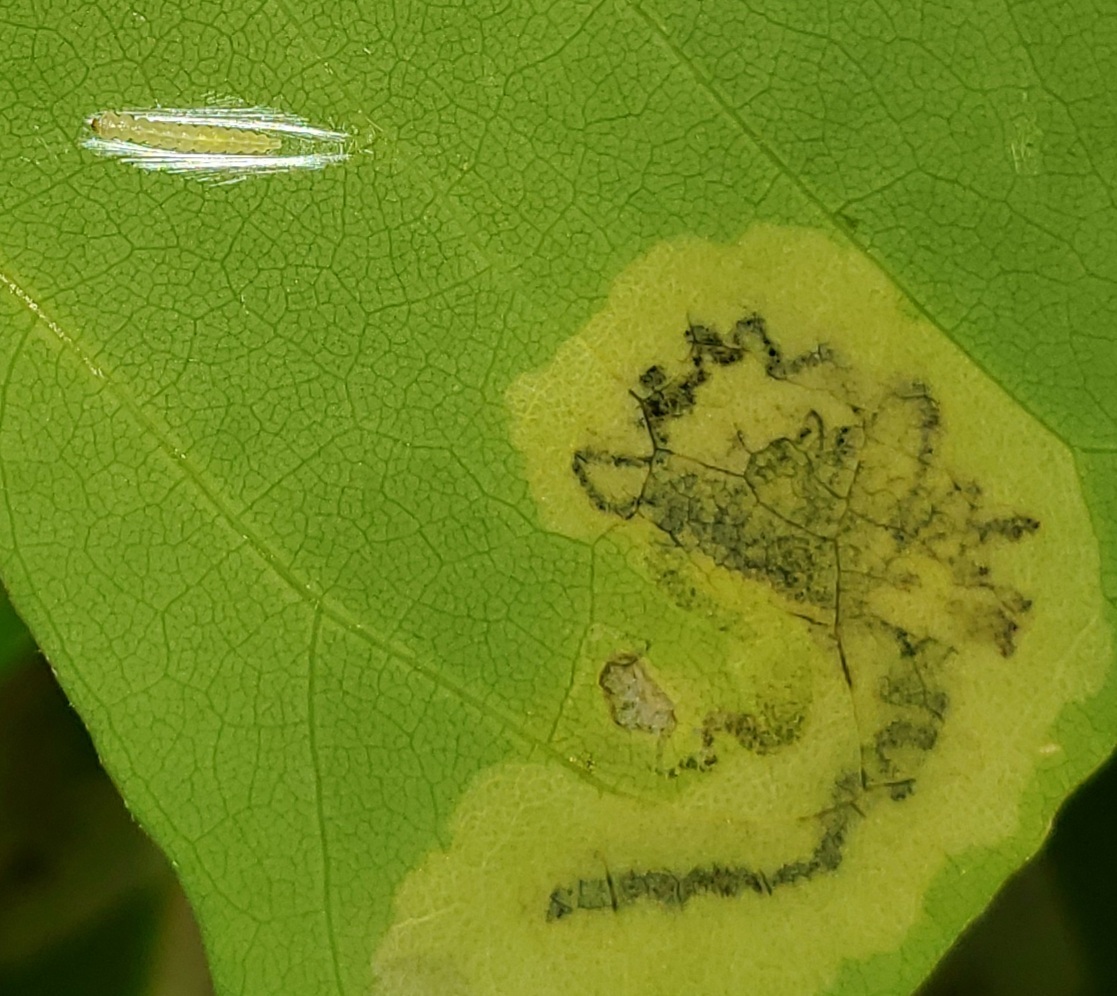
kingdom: Animalia
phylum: Arthropoda
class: Insecta
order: Lepidoptera
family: Lyonetiidae
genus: Leucoptera
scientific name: Leucoptera erythrinella
